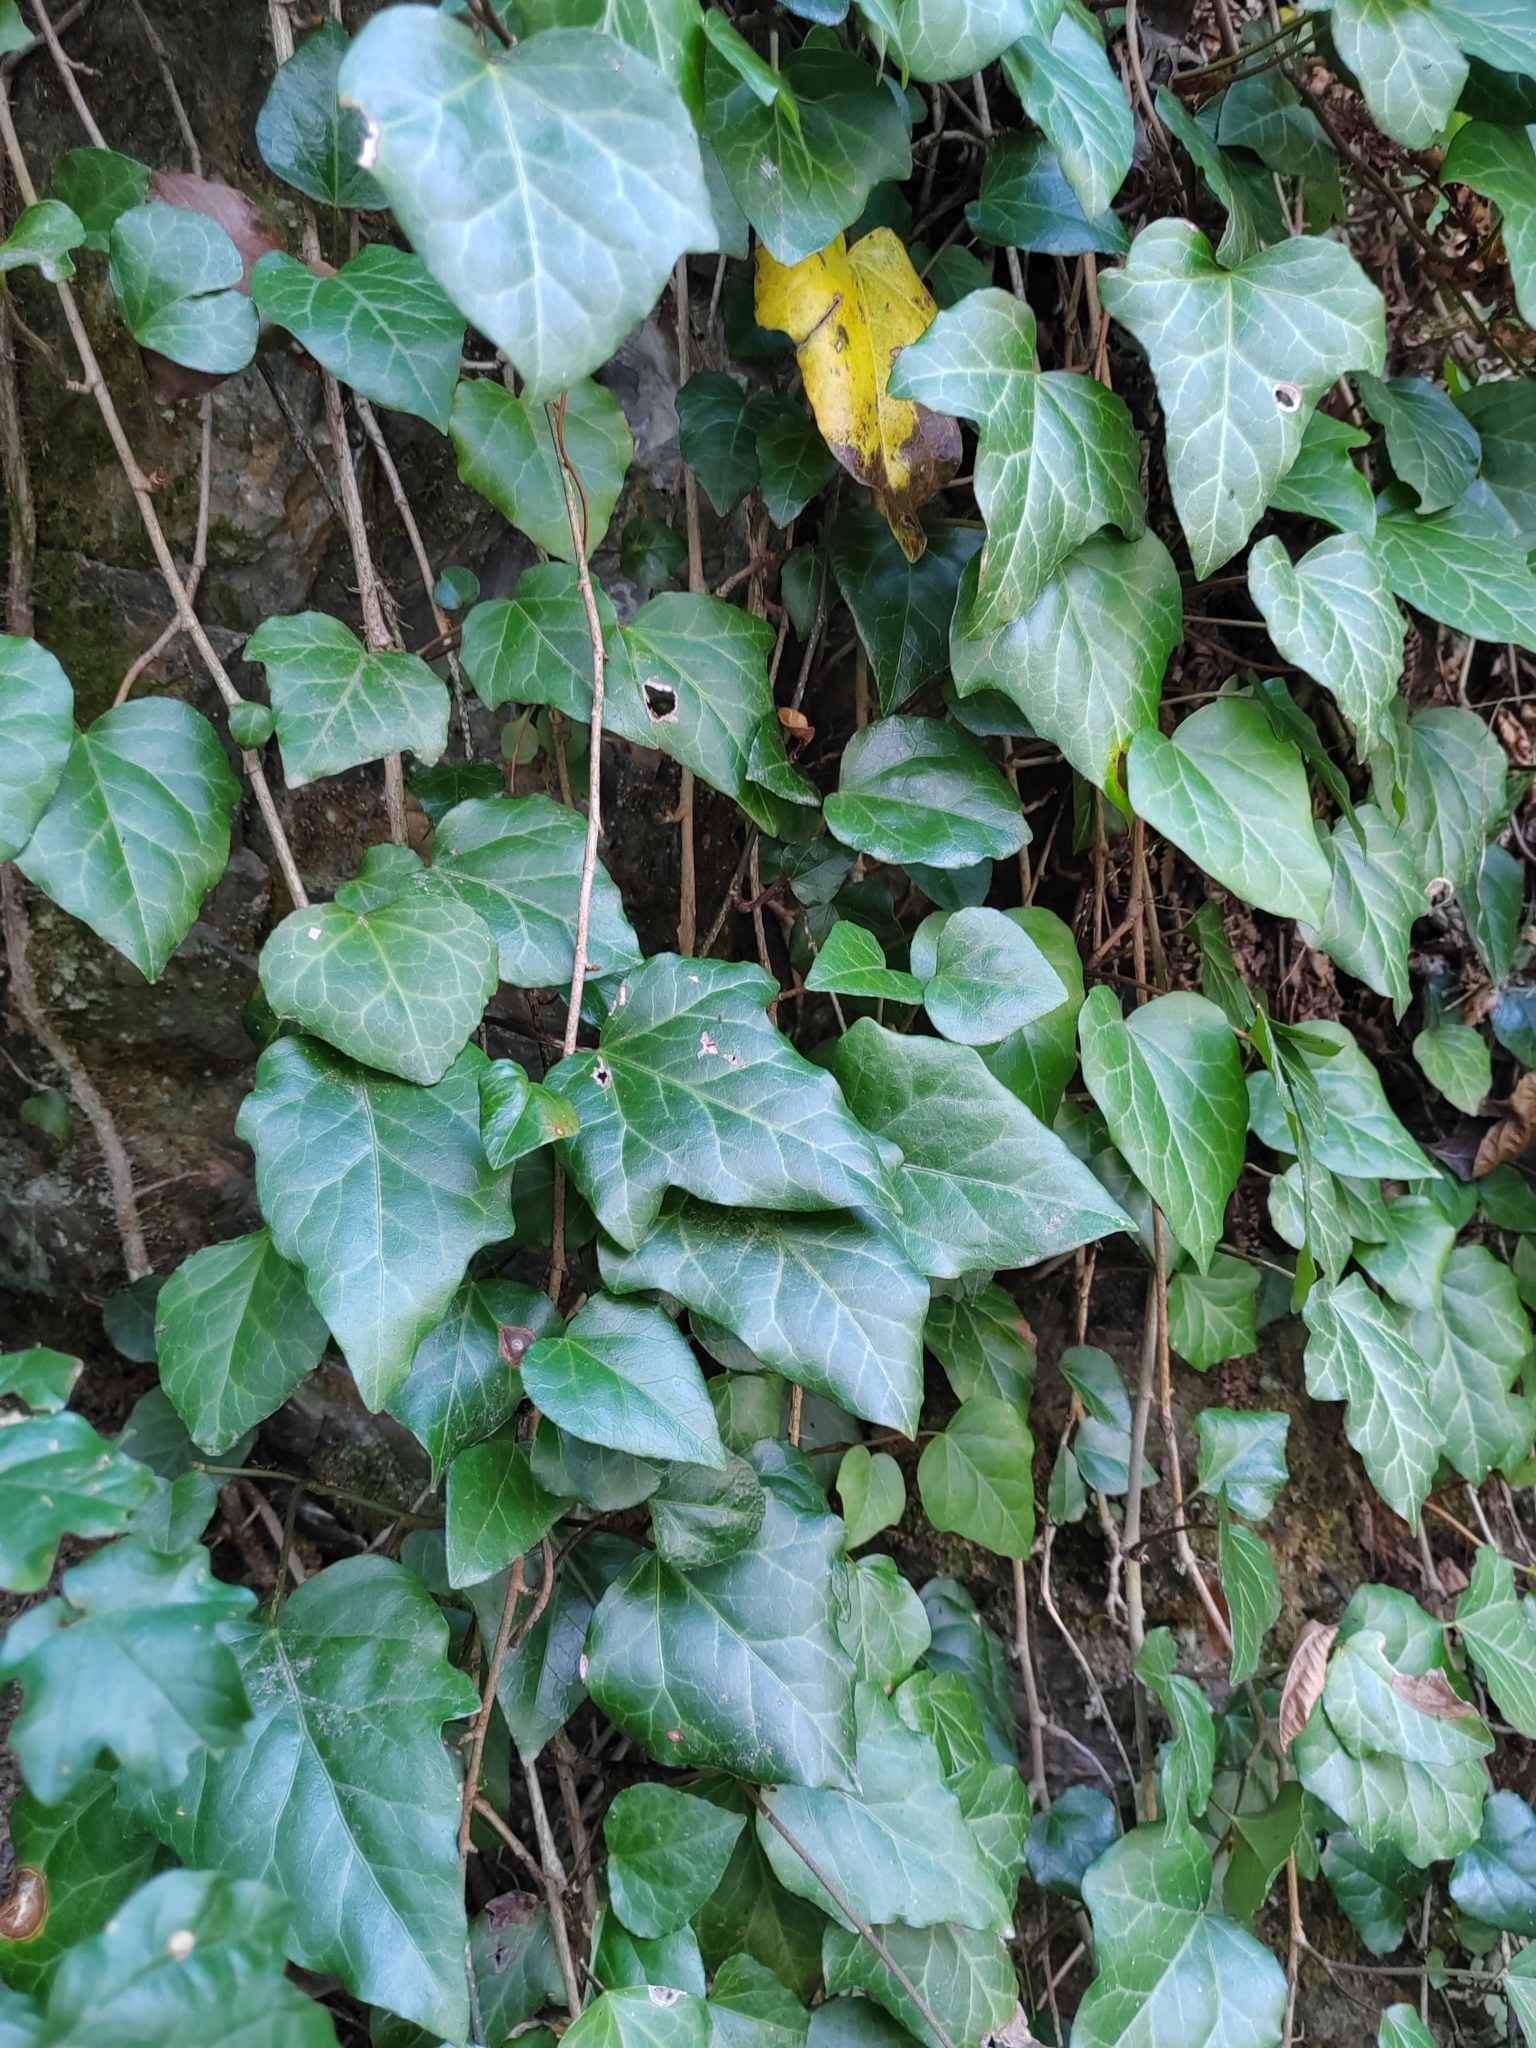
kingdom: Plantae
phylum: Tracheophyta
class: Magnoliopsida
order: Apiales
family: Araliaceae
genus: Hedera
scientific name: Hedera colchica
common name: Persian ivy
